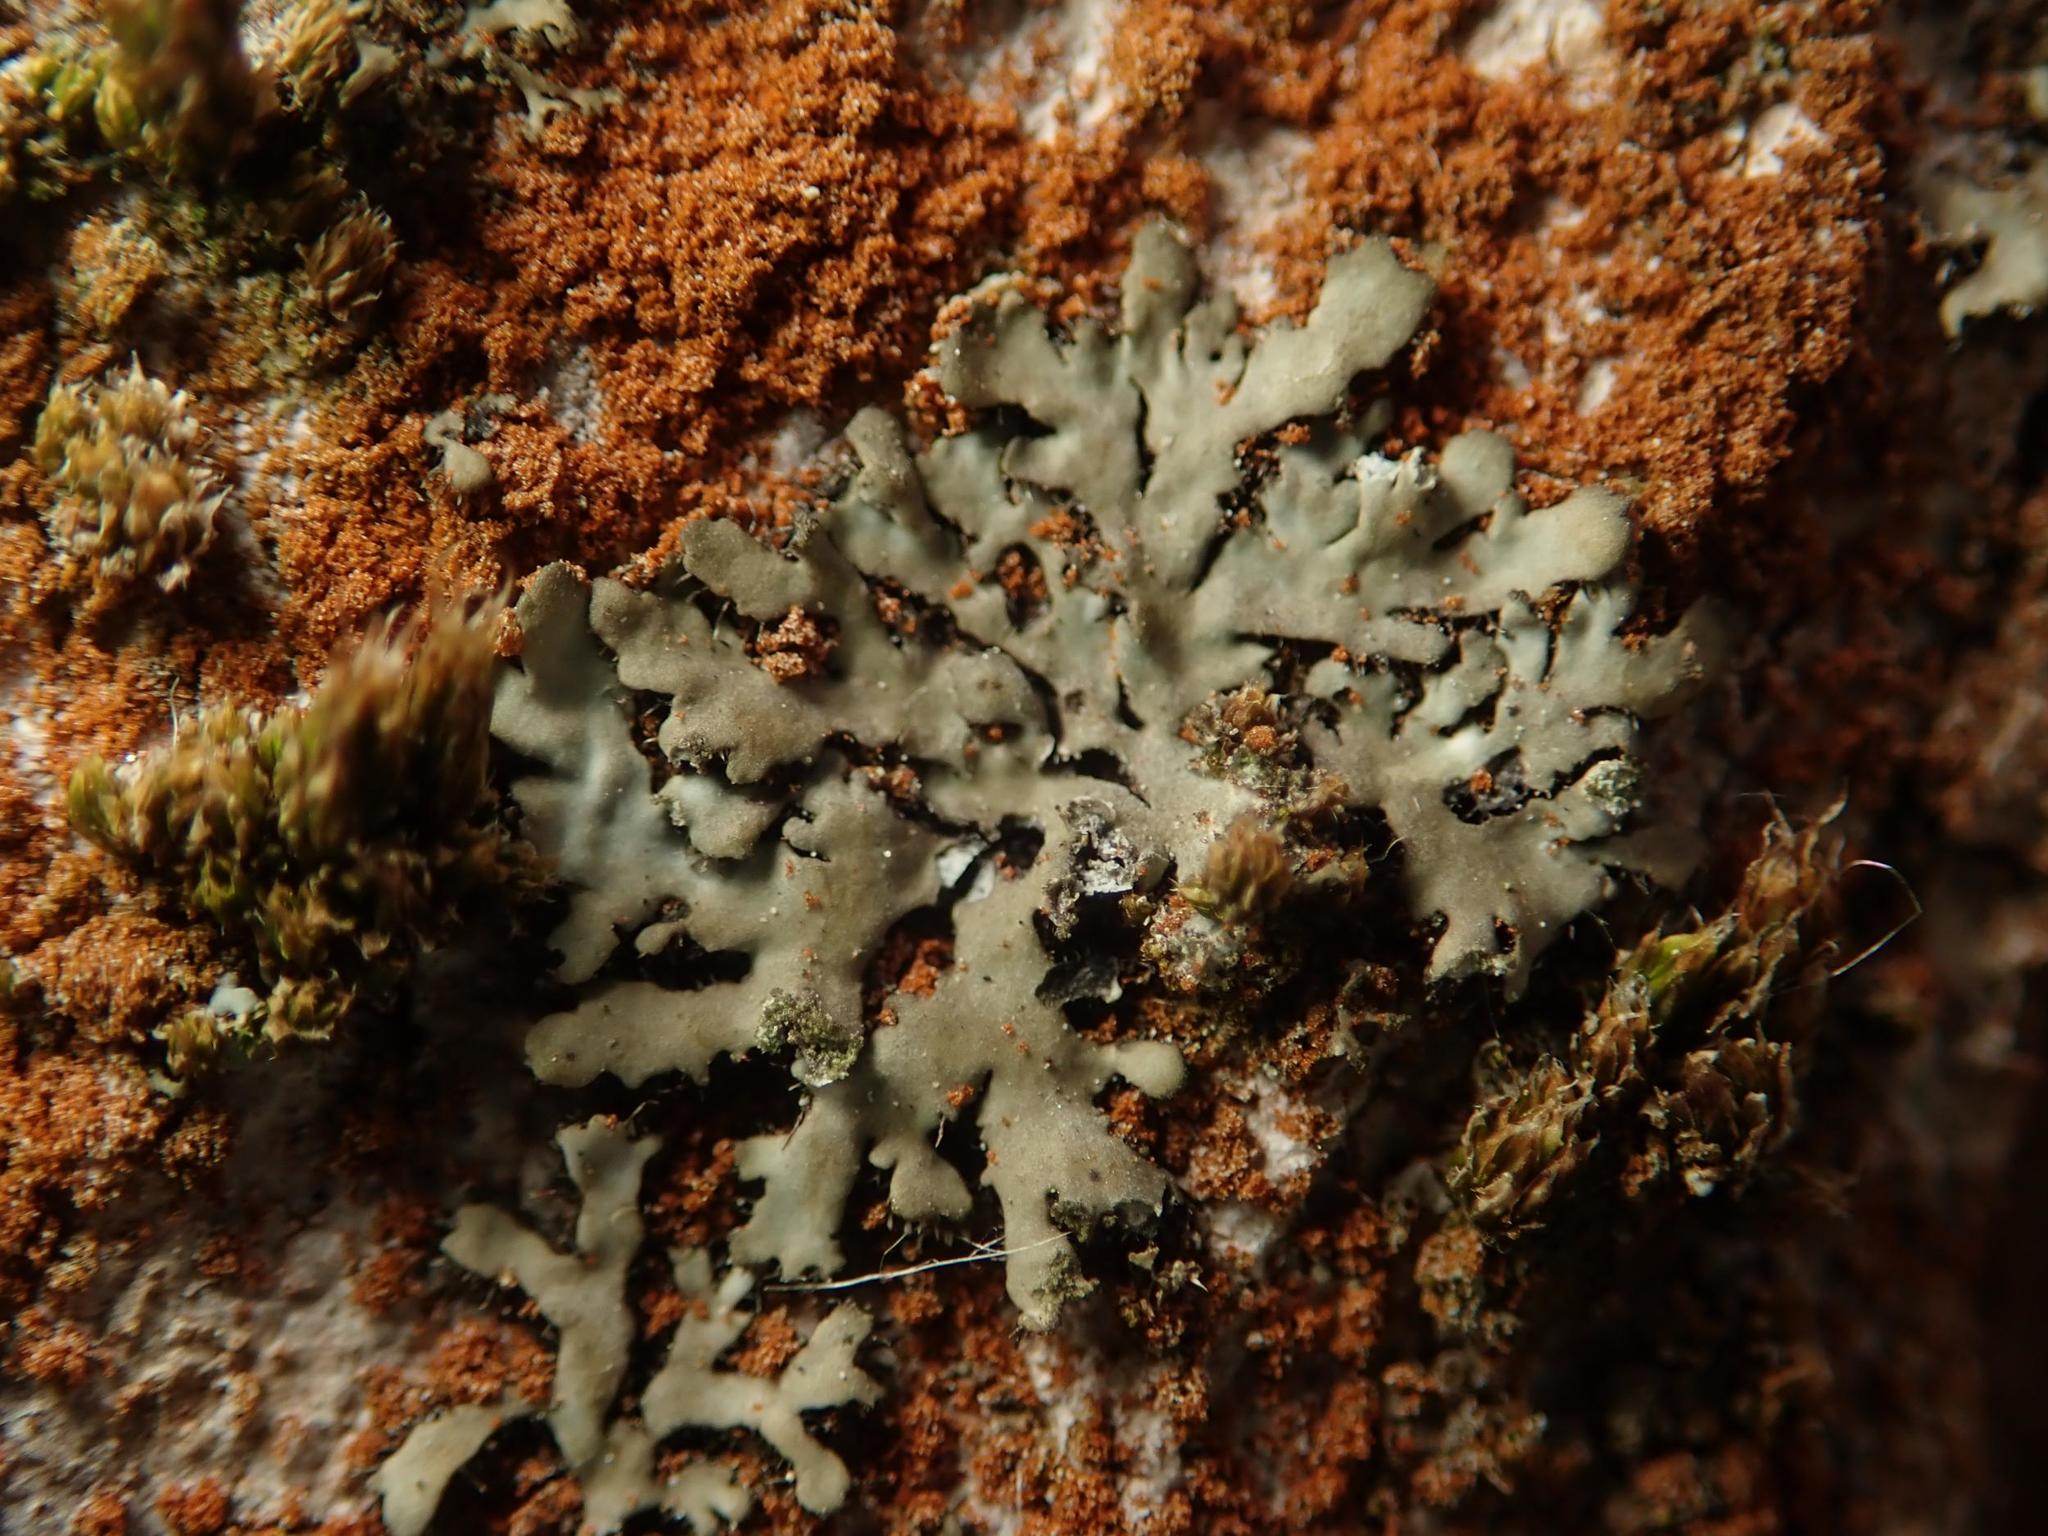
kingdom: Fungi
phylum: Ascomycota
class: Lecanoromycetes
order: Caliciales
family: Physciaceae
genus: Phaeophyscia
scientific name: Phaeophyscia orbicularis
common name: Mealy shadow lichen
